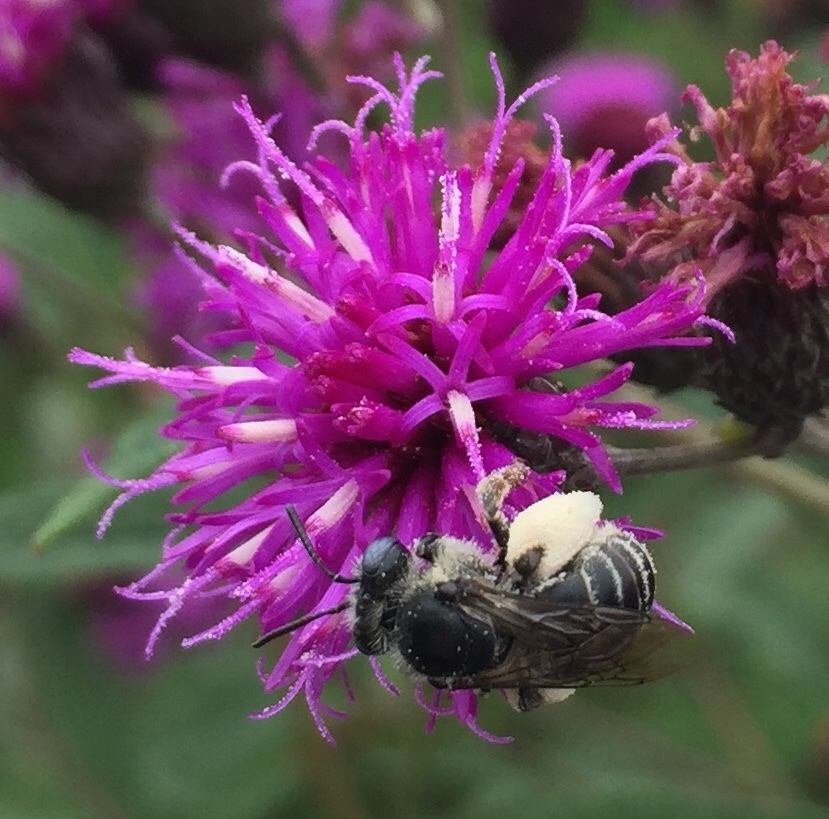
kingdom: Animalia
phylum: Arthropoda
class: Insecta
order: Hymenoptera
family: Apidae
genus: Melissodes
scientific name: Melissodes denticulatus
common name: Denticulate long-horned bee
